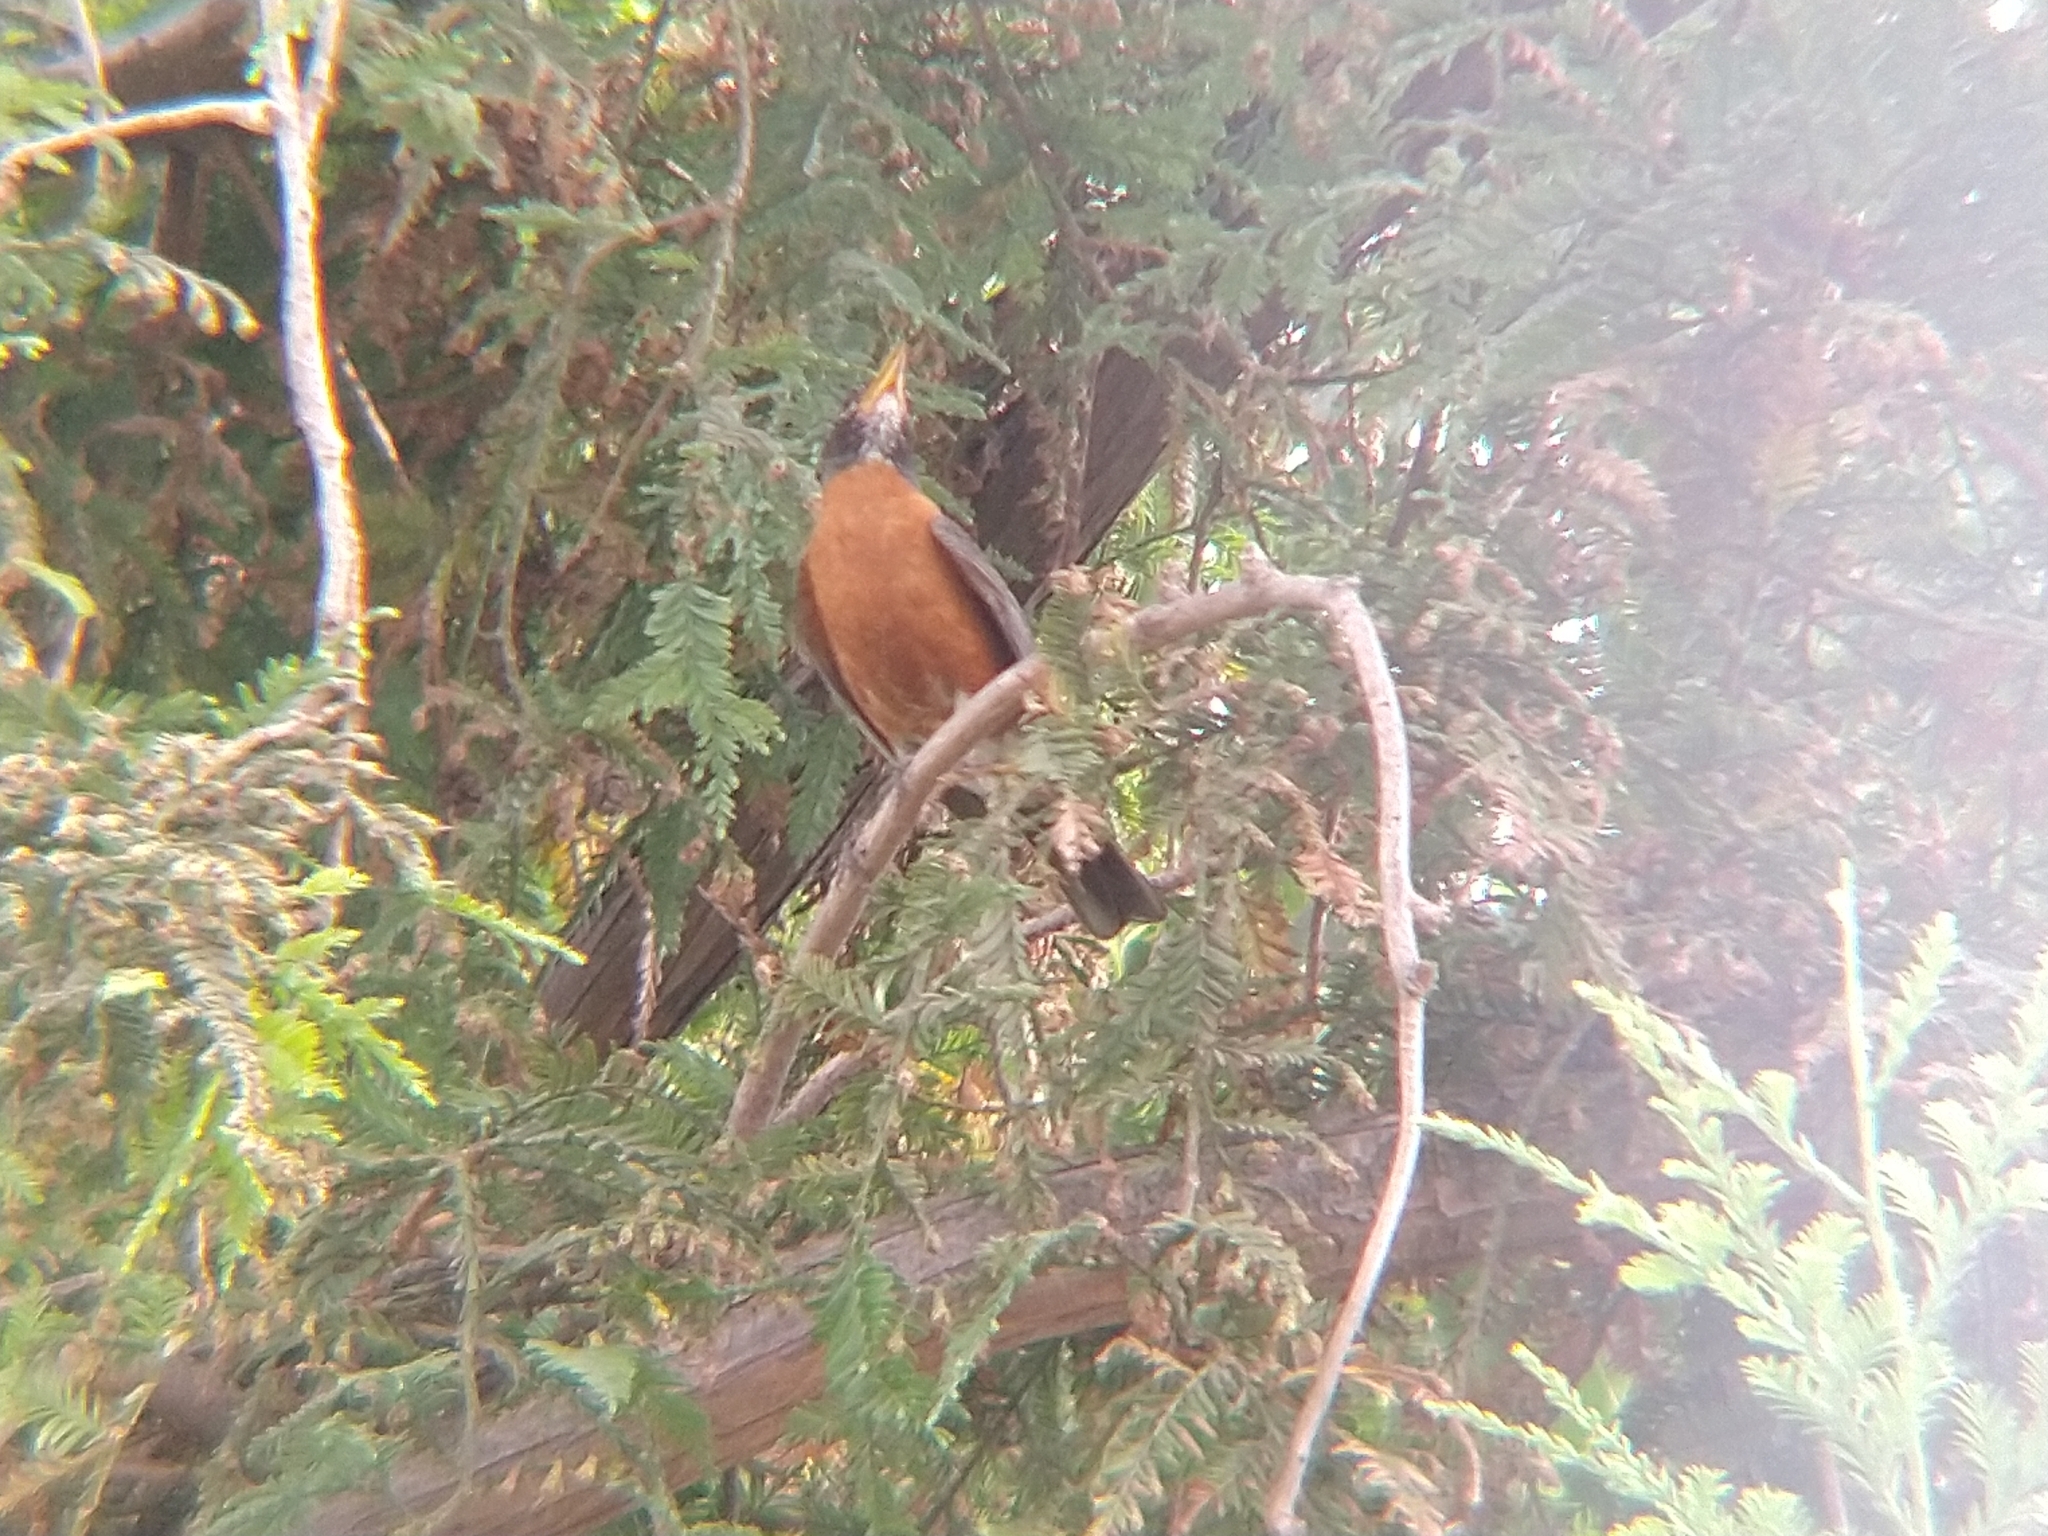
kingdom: Animalia
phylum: Chordata
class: Aves
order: Passeriformes
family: Turdidae
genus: Turdus
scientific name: Turdus migratorius
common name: American robin
